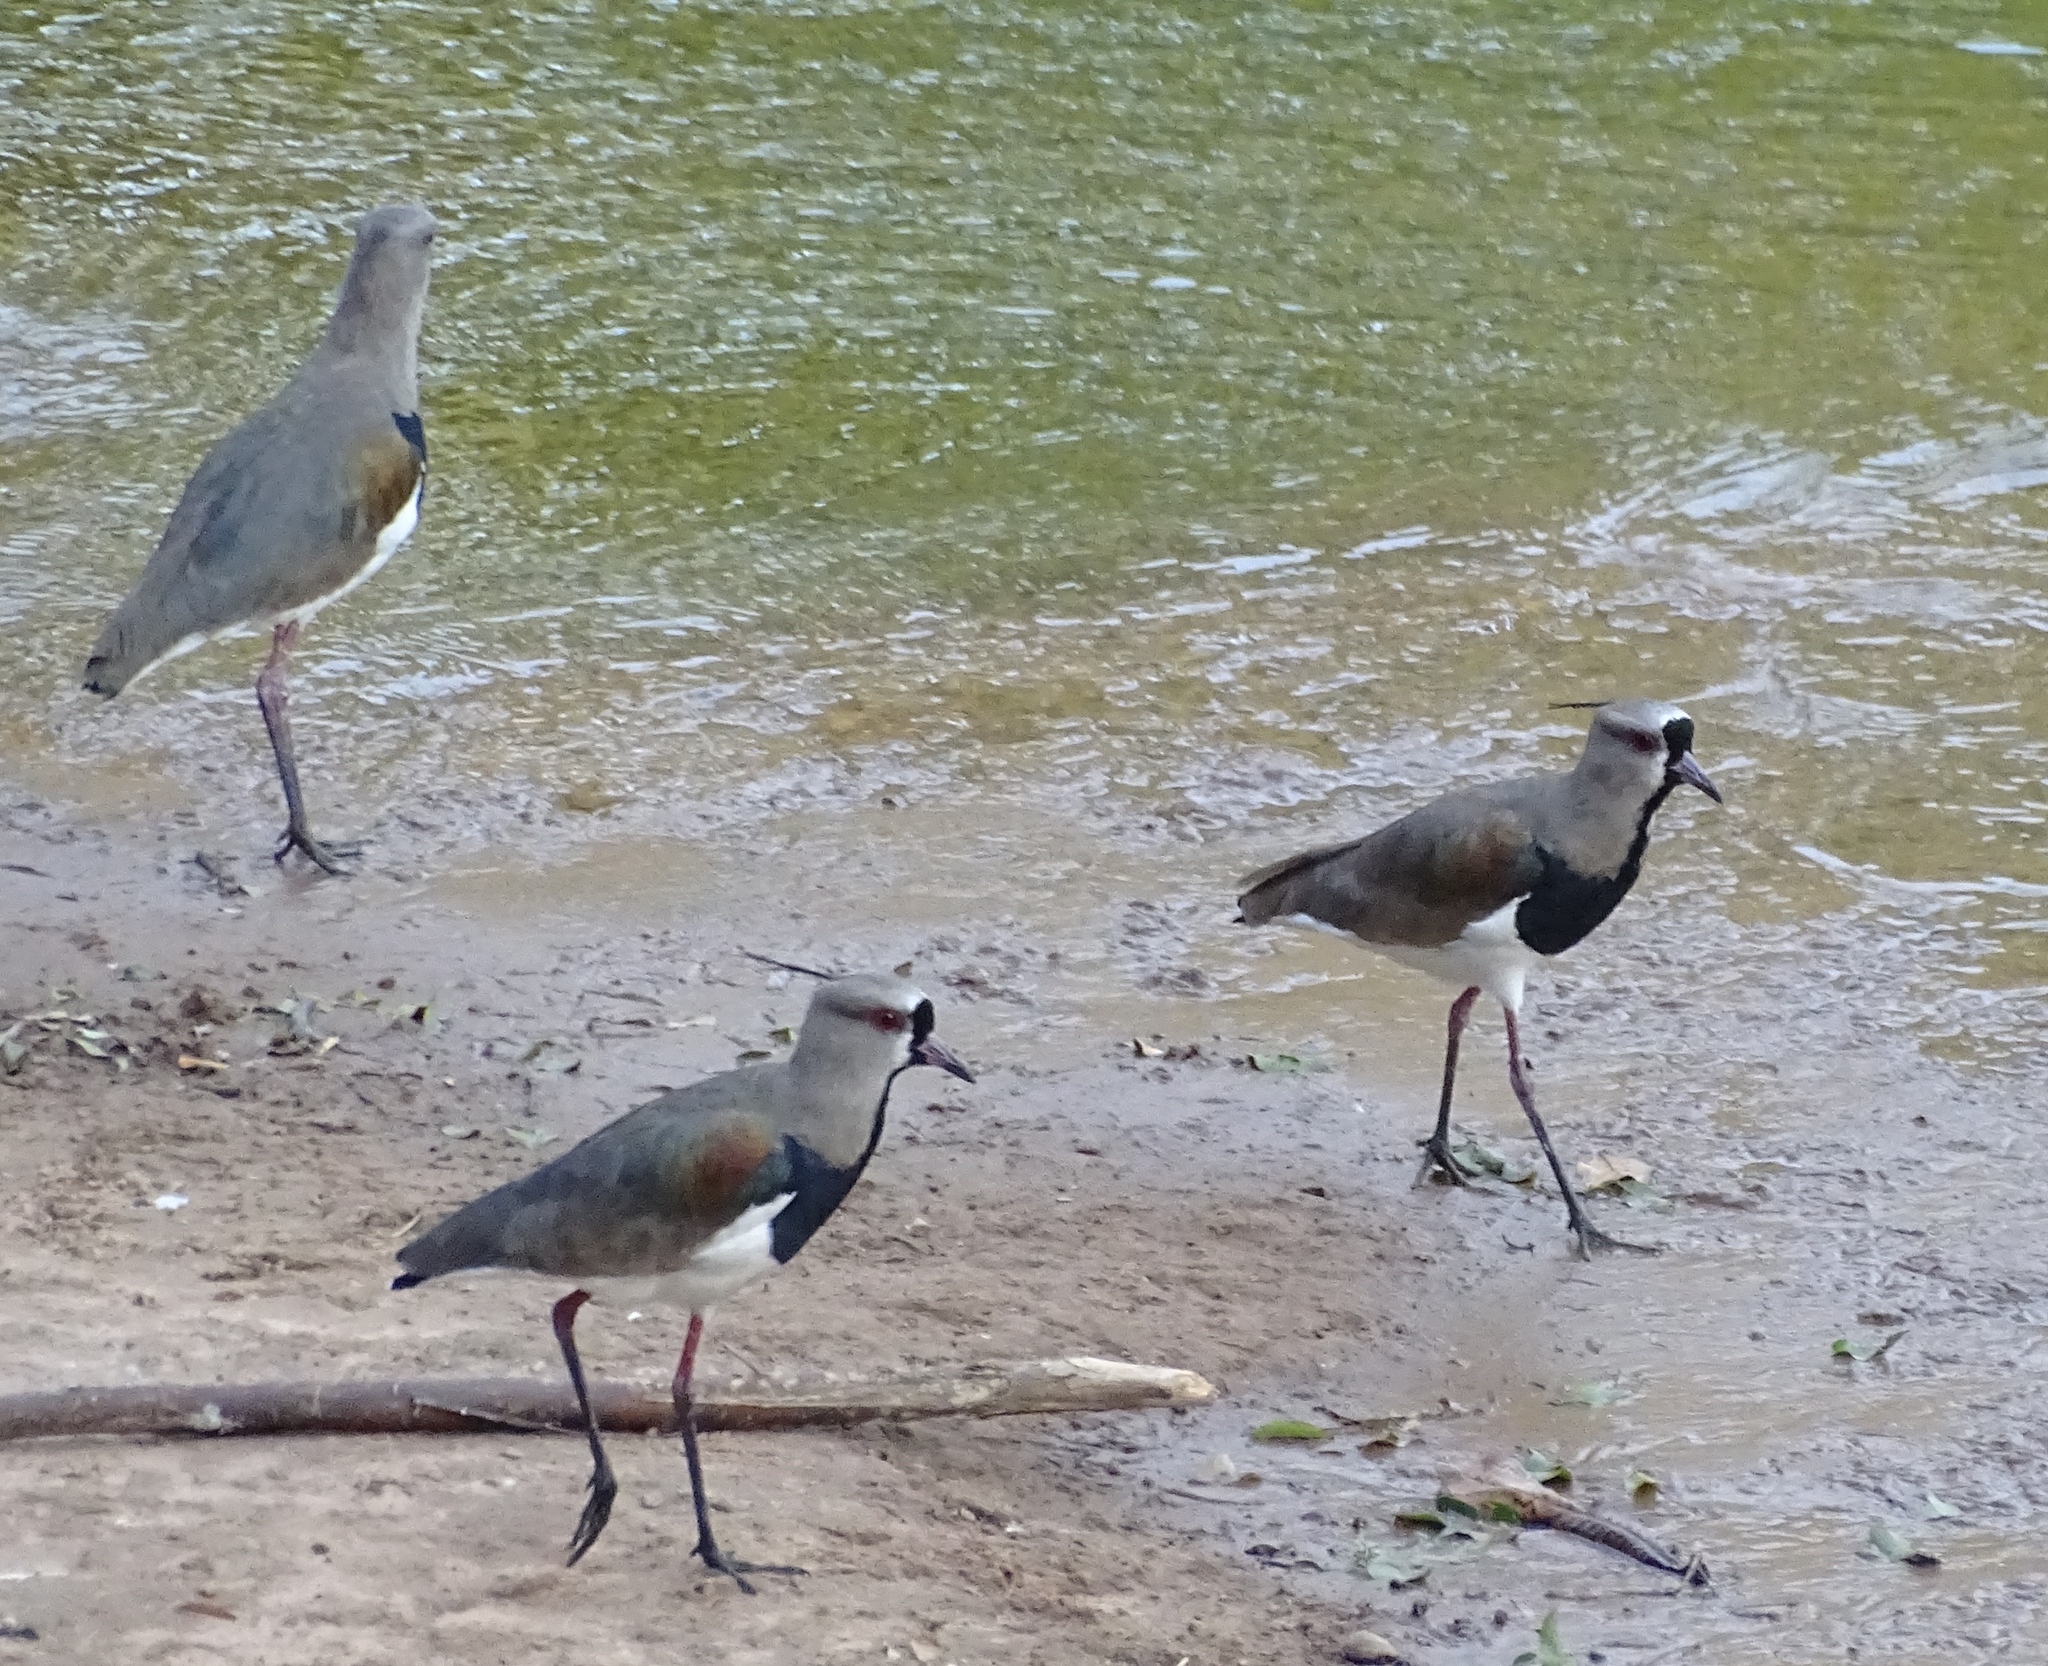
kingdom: Animalia
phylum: Chordata
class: Aves
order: Charadriiformes
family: Charadriidae
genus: Vanellus
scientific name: Vanellus chilensis
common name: Southern lapwing
